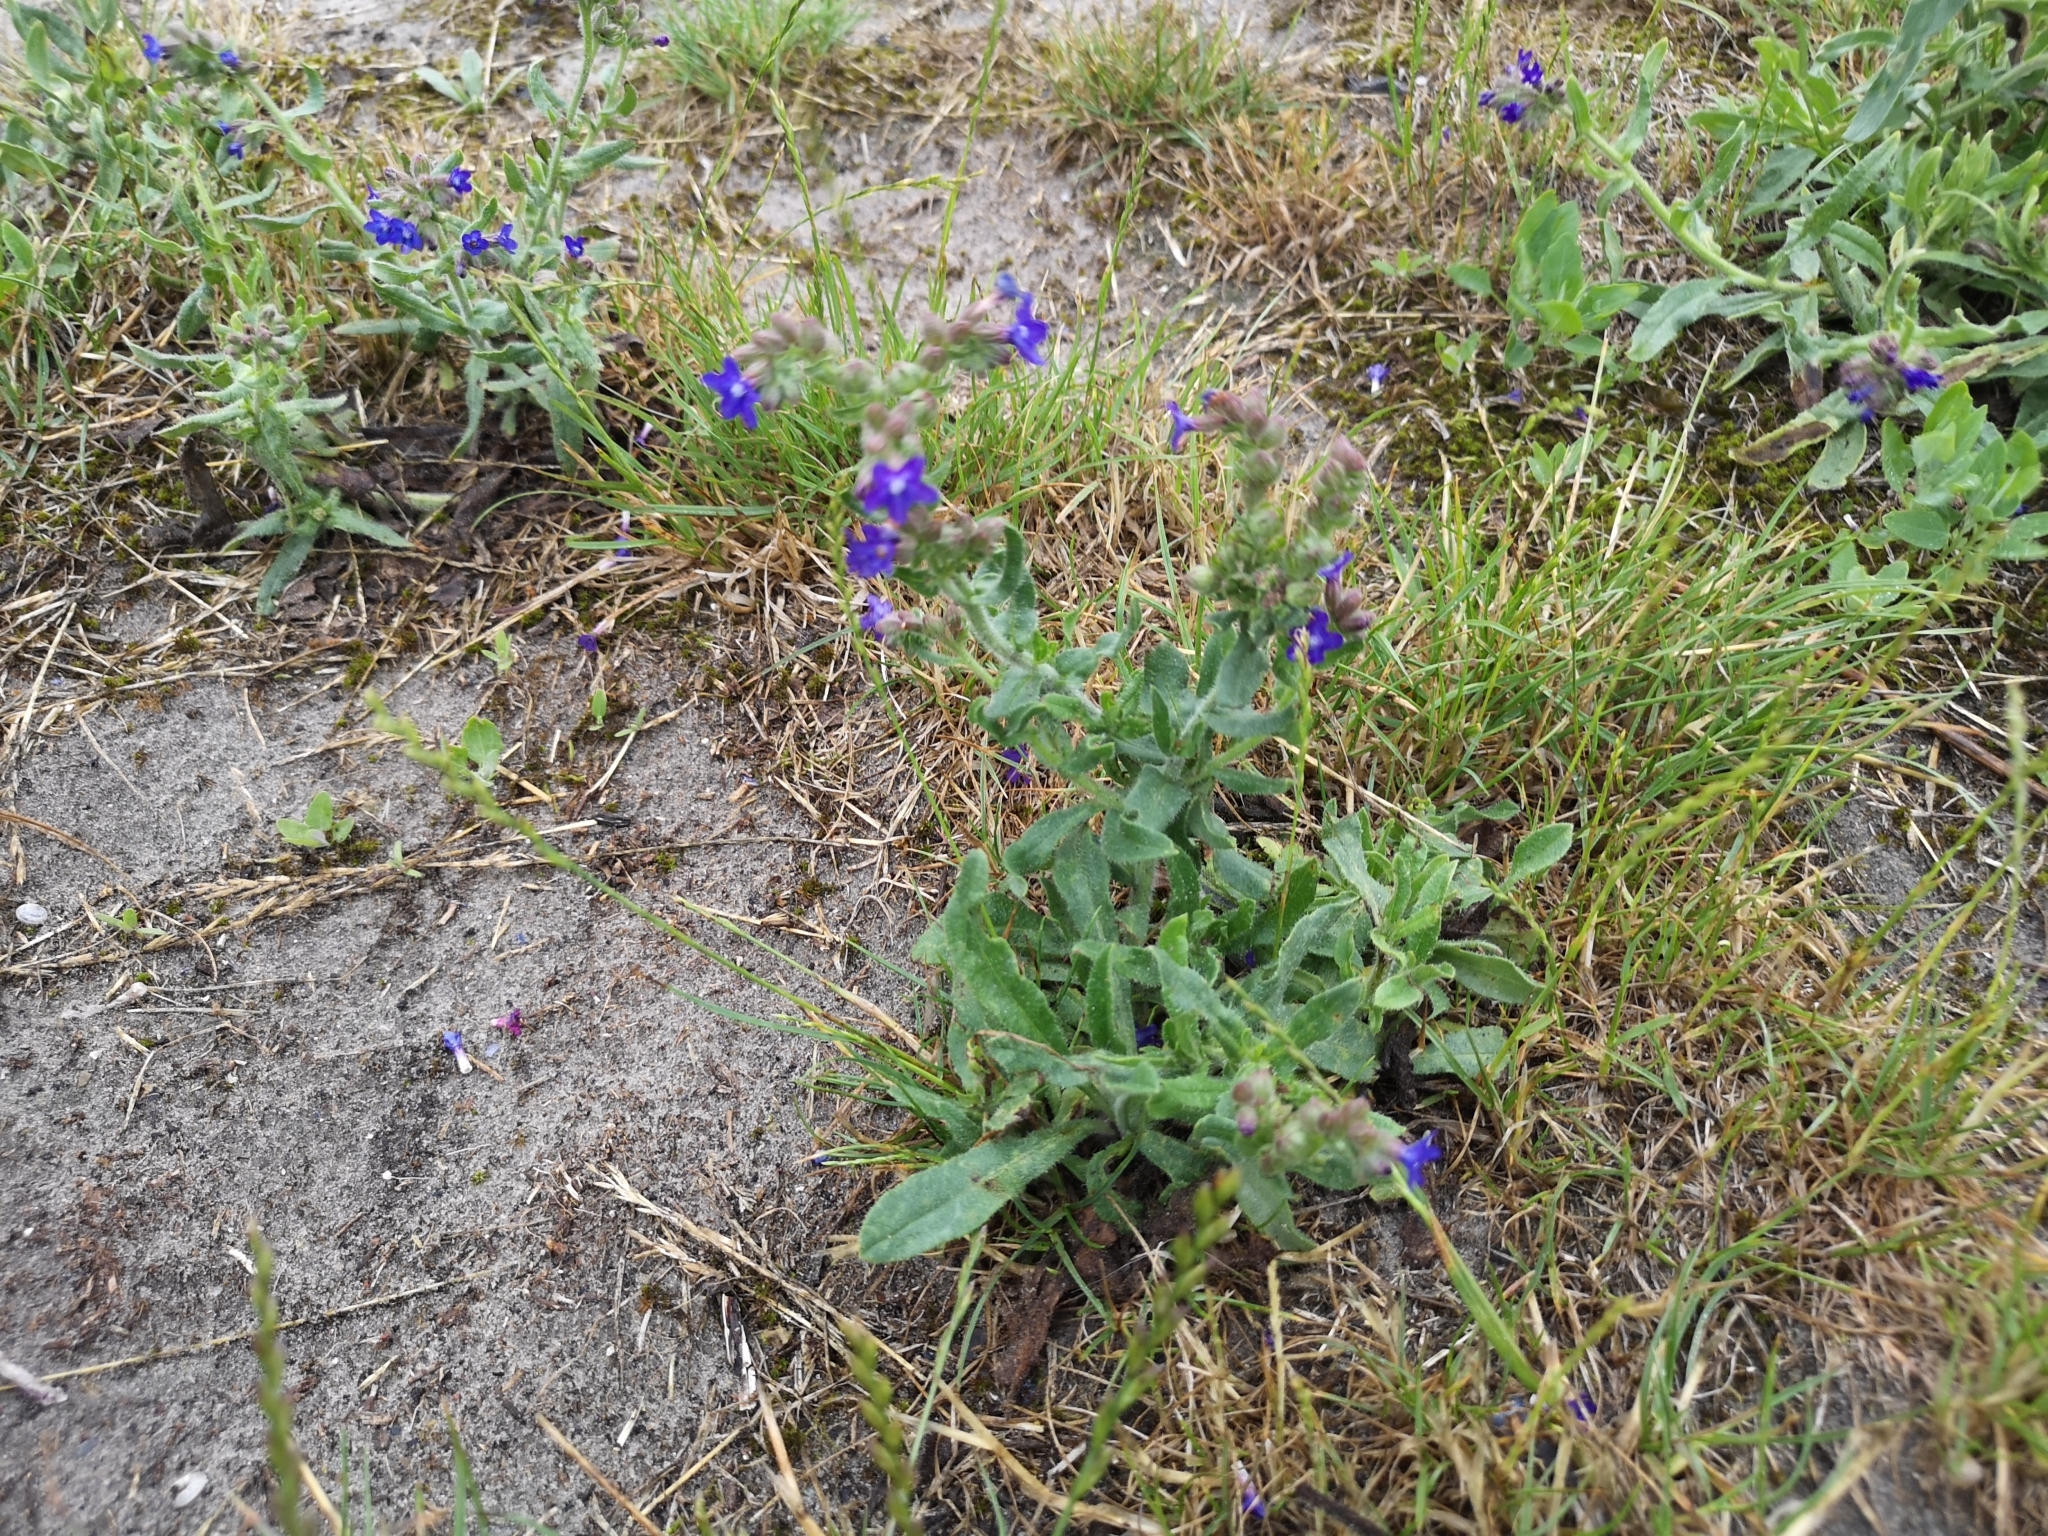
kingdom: Plantae
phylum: Tracheophyta
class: Magnoliopsida
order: Boraginales
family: Boraginaceae
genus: Anchusa
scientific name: Anchusa officinalis
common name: Alkanet
